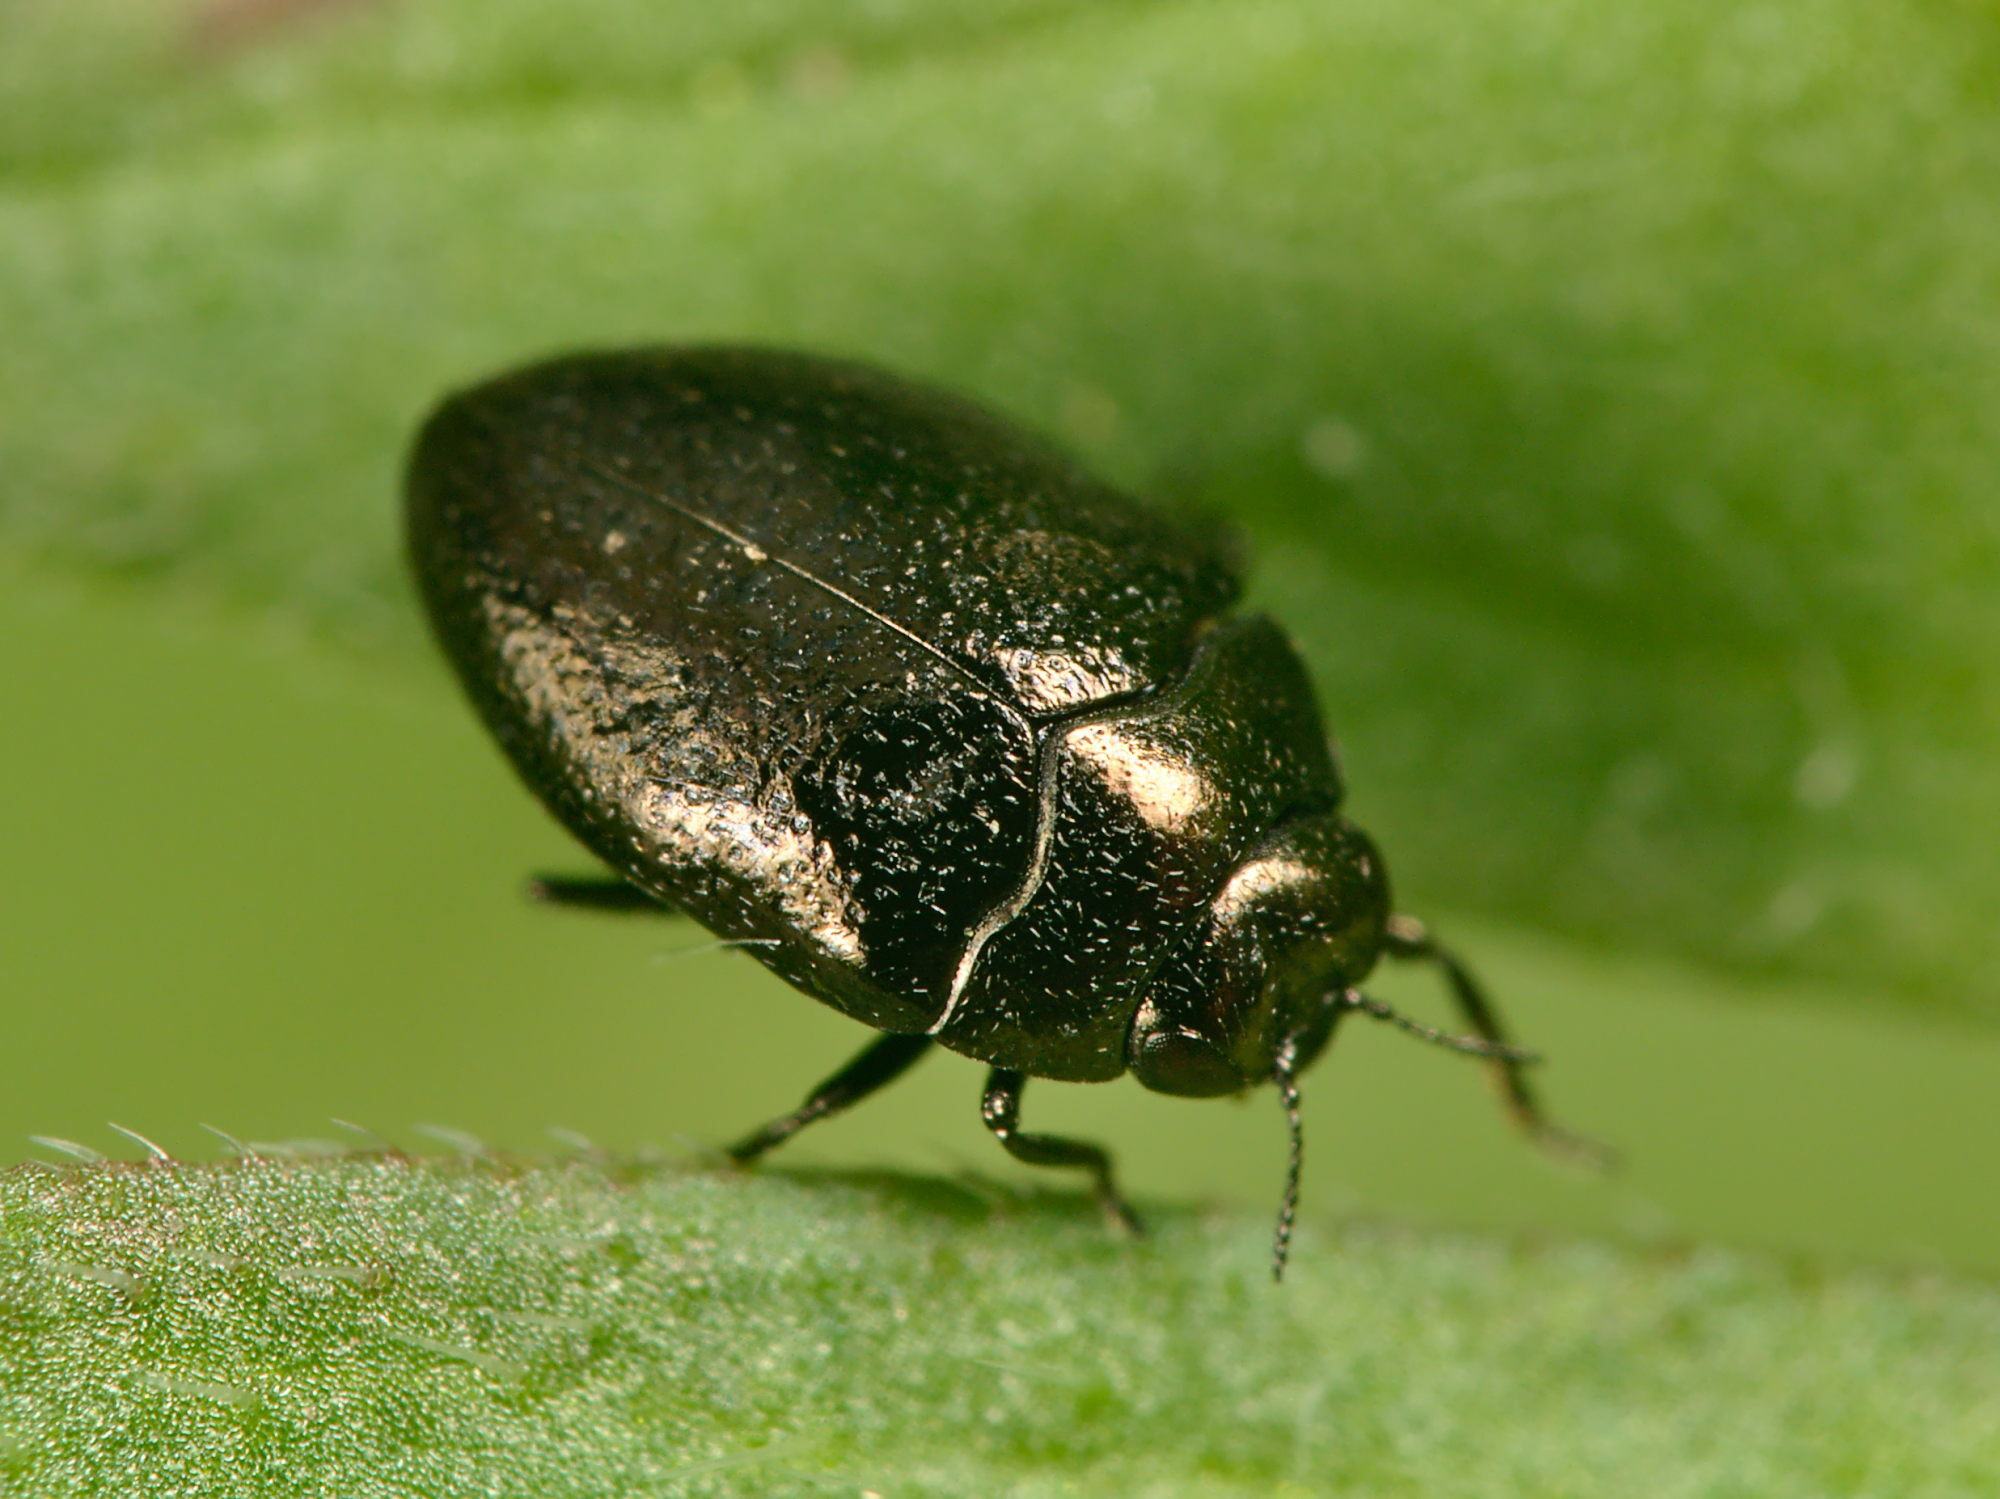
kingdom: Animalia
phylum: Arthropoda
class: Insecta
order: Coleoptera
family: Buprestidae
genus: Trachys
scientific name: Trachys scrobiculatus
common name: Ground-ivy jewel beetle
